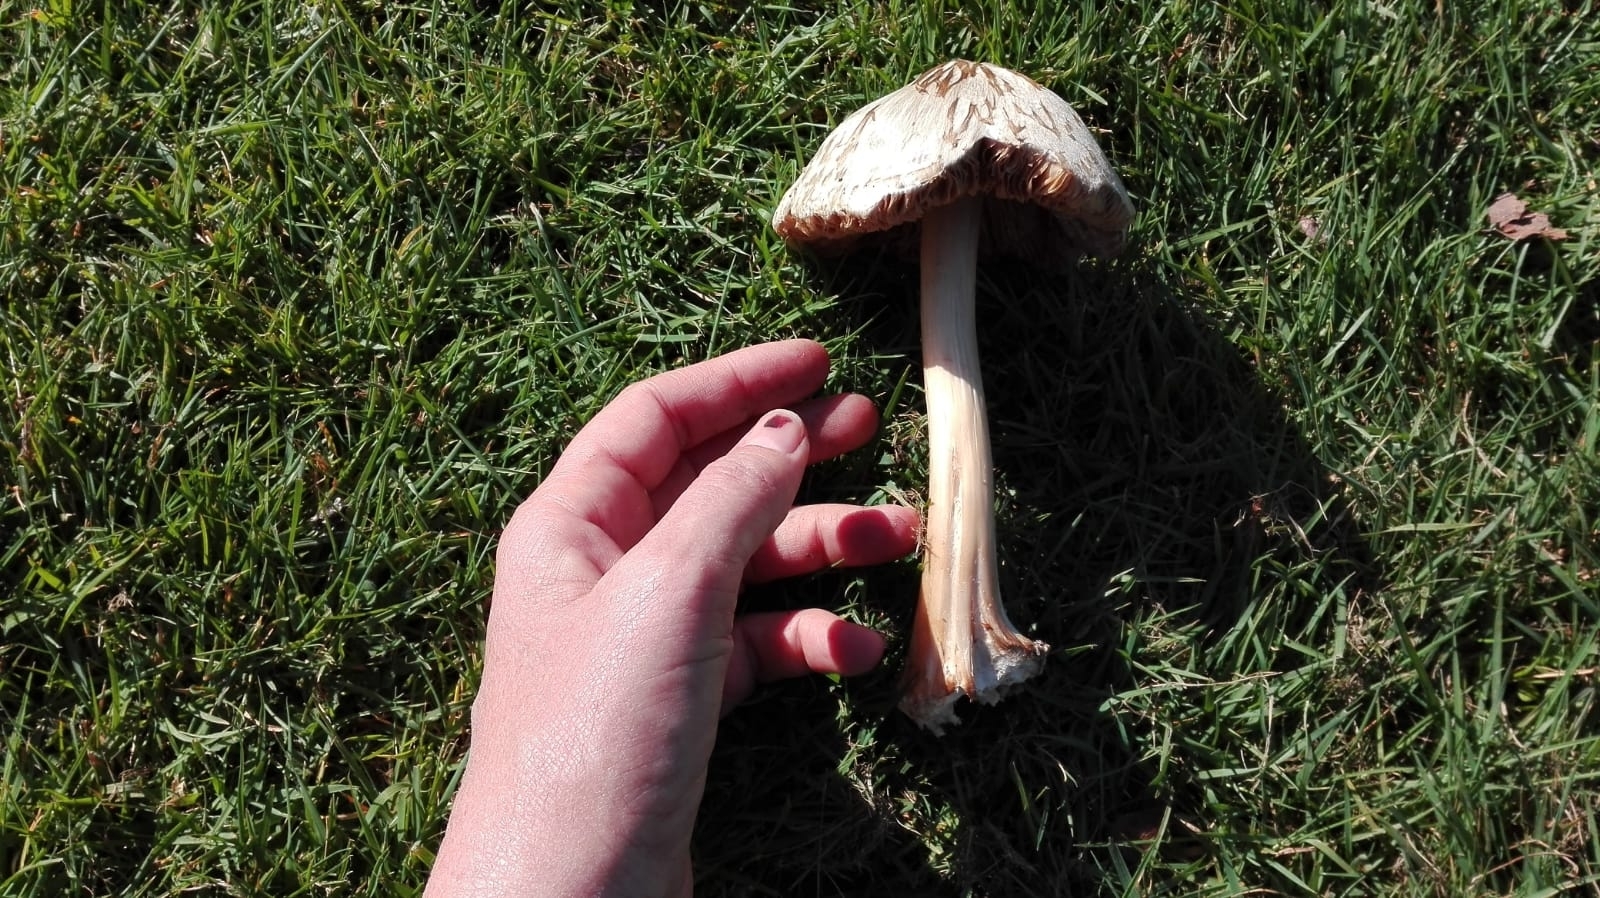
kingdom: Fungi
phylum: Basidiomycota
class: Agaricomycetes
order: Agaricales
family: Pluteaceae
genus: Volvopluteus
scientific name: Volvopluteus gloiocephalus
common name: Stubble rosegill
